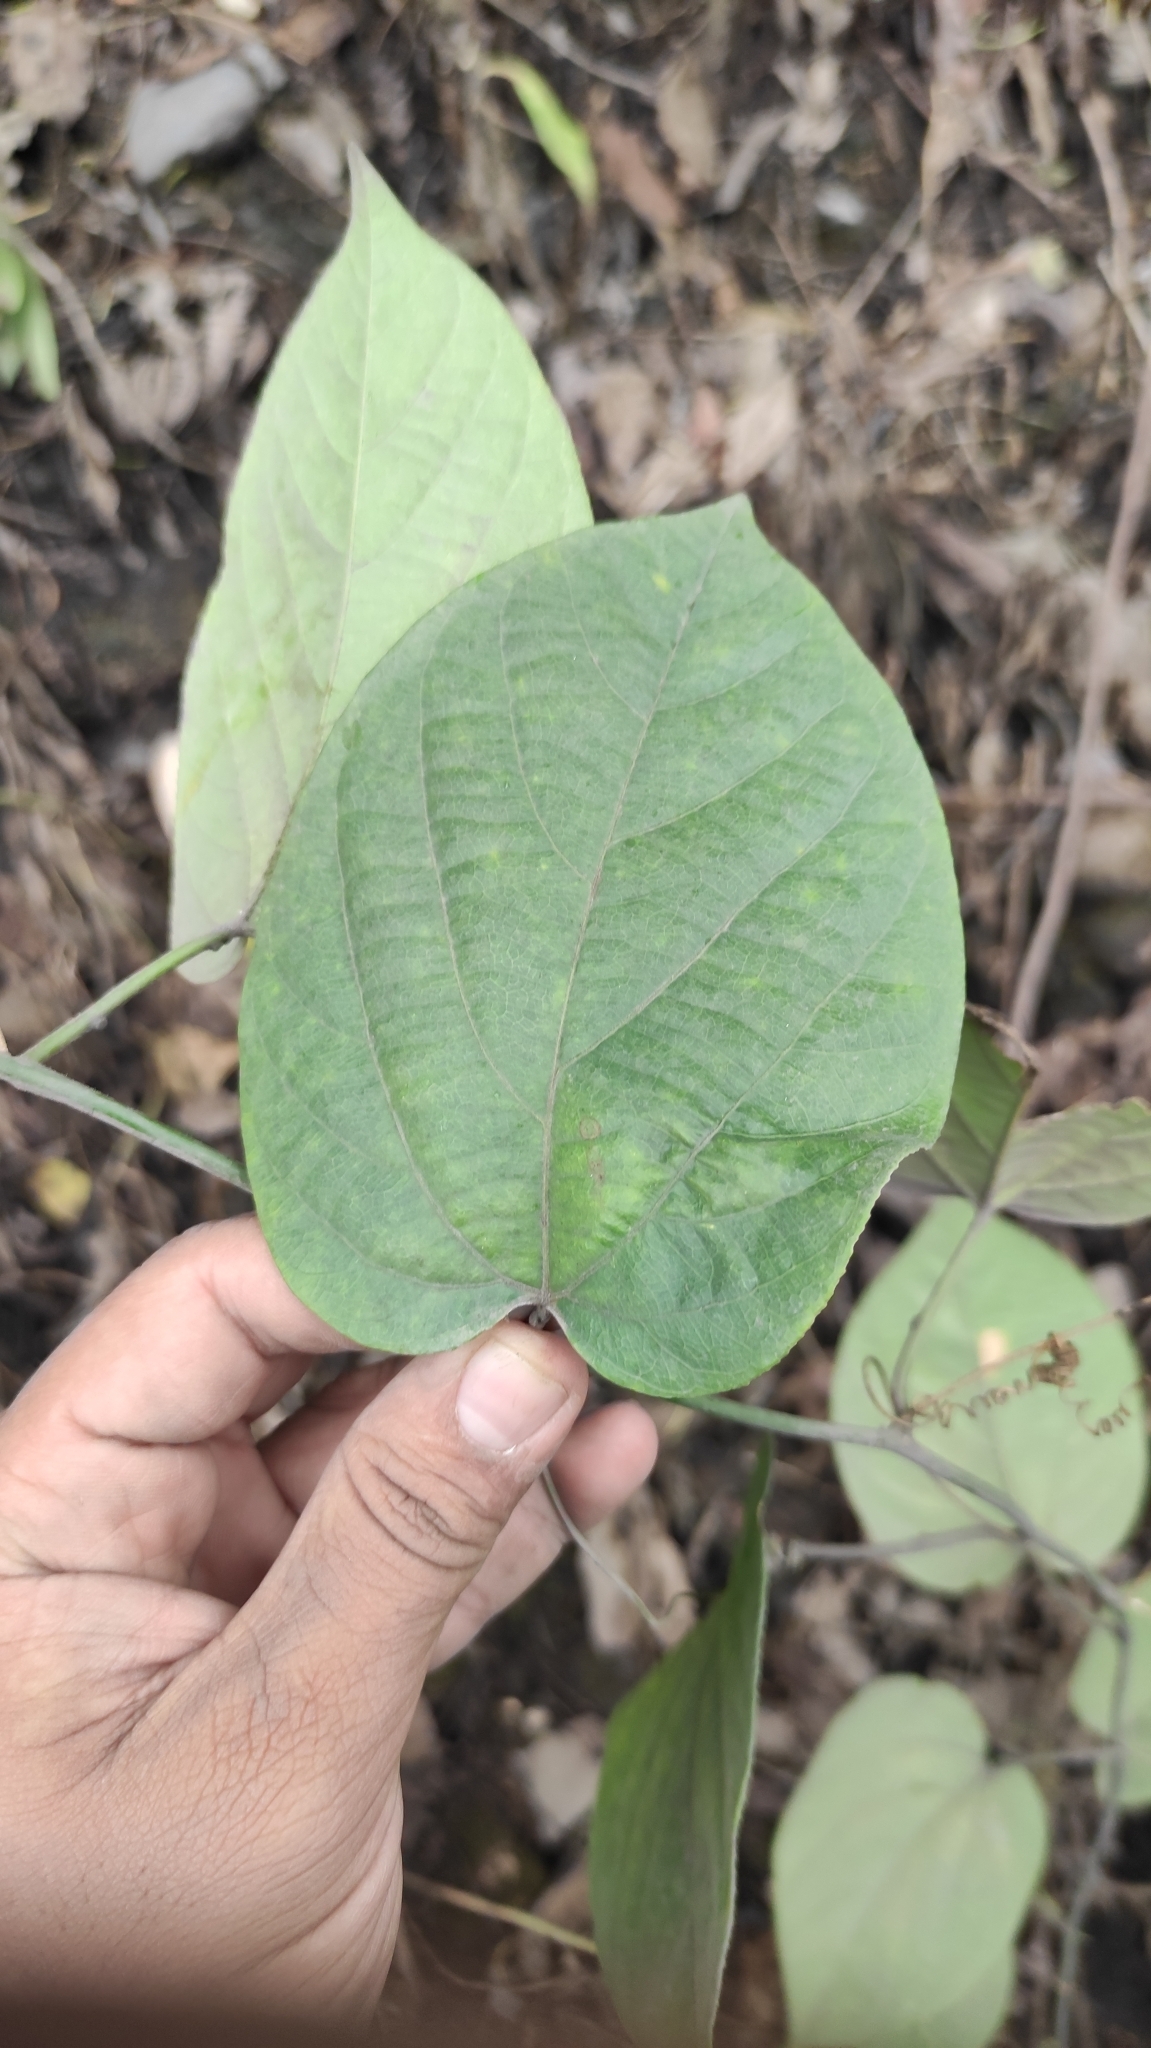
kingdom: Plantae
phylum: Tracheophyta
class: Magnoliopsida
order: Malpighiales
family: Passifloraceae
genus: Passiflora
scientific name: Passiflora maliformis
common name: Conch apple
